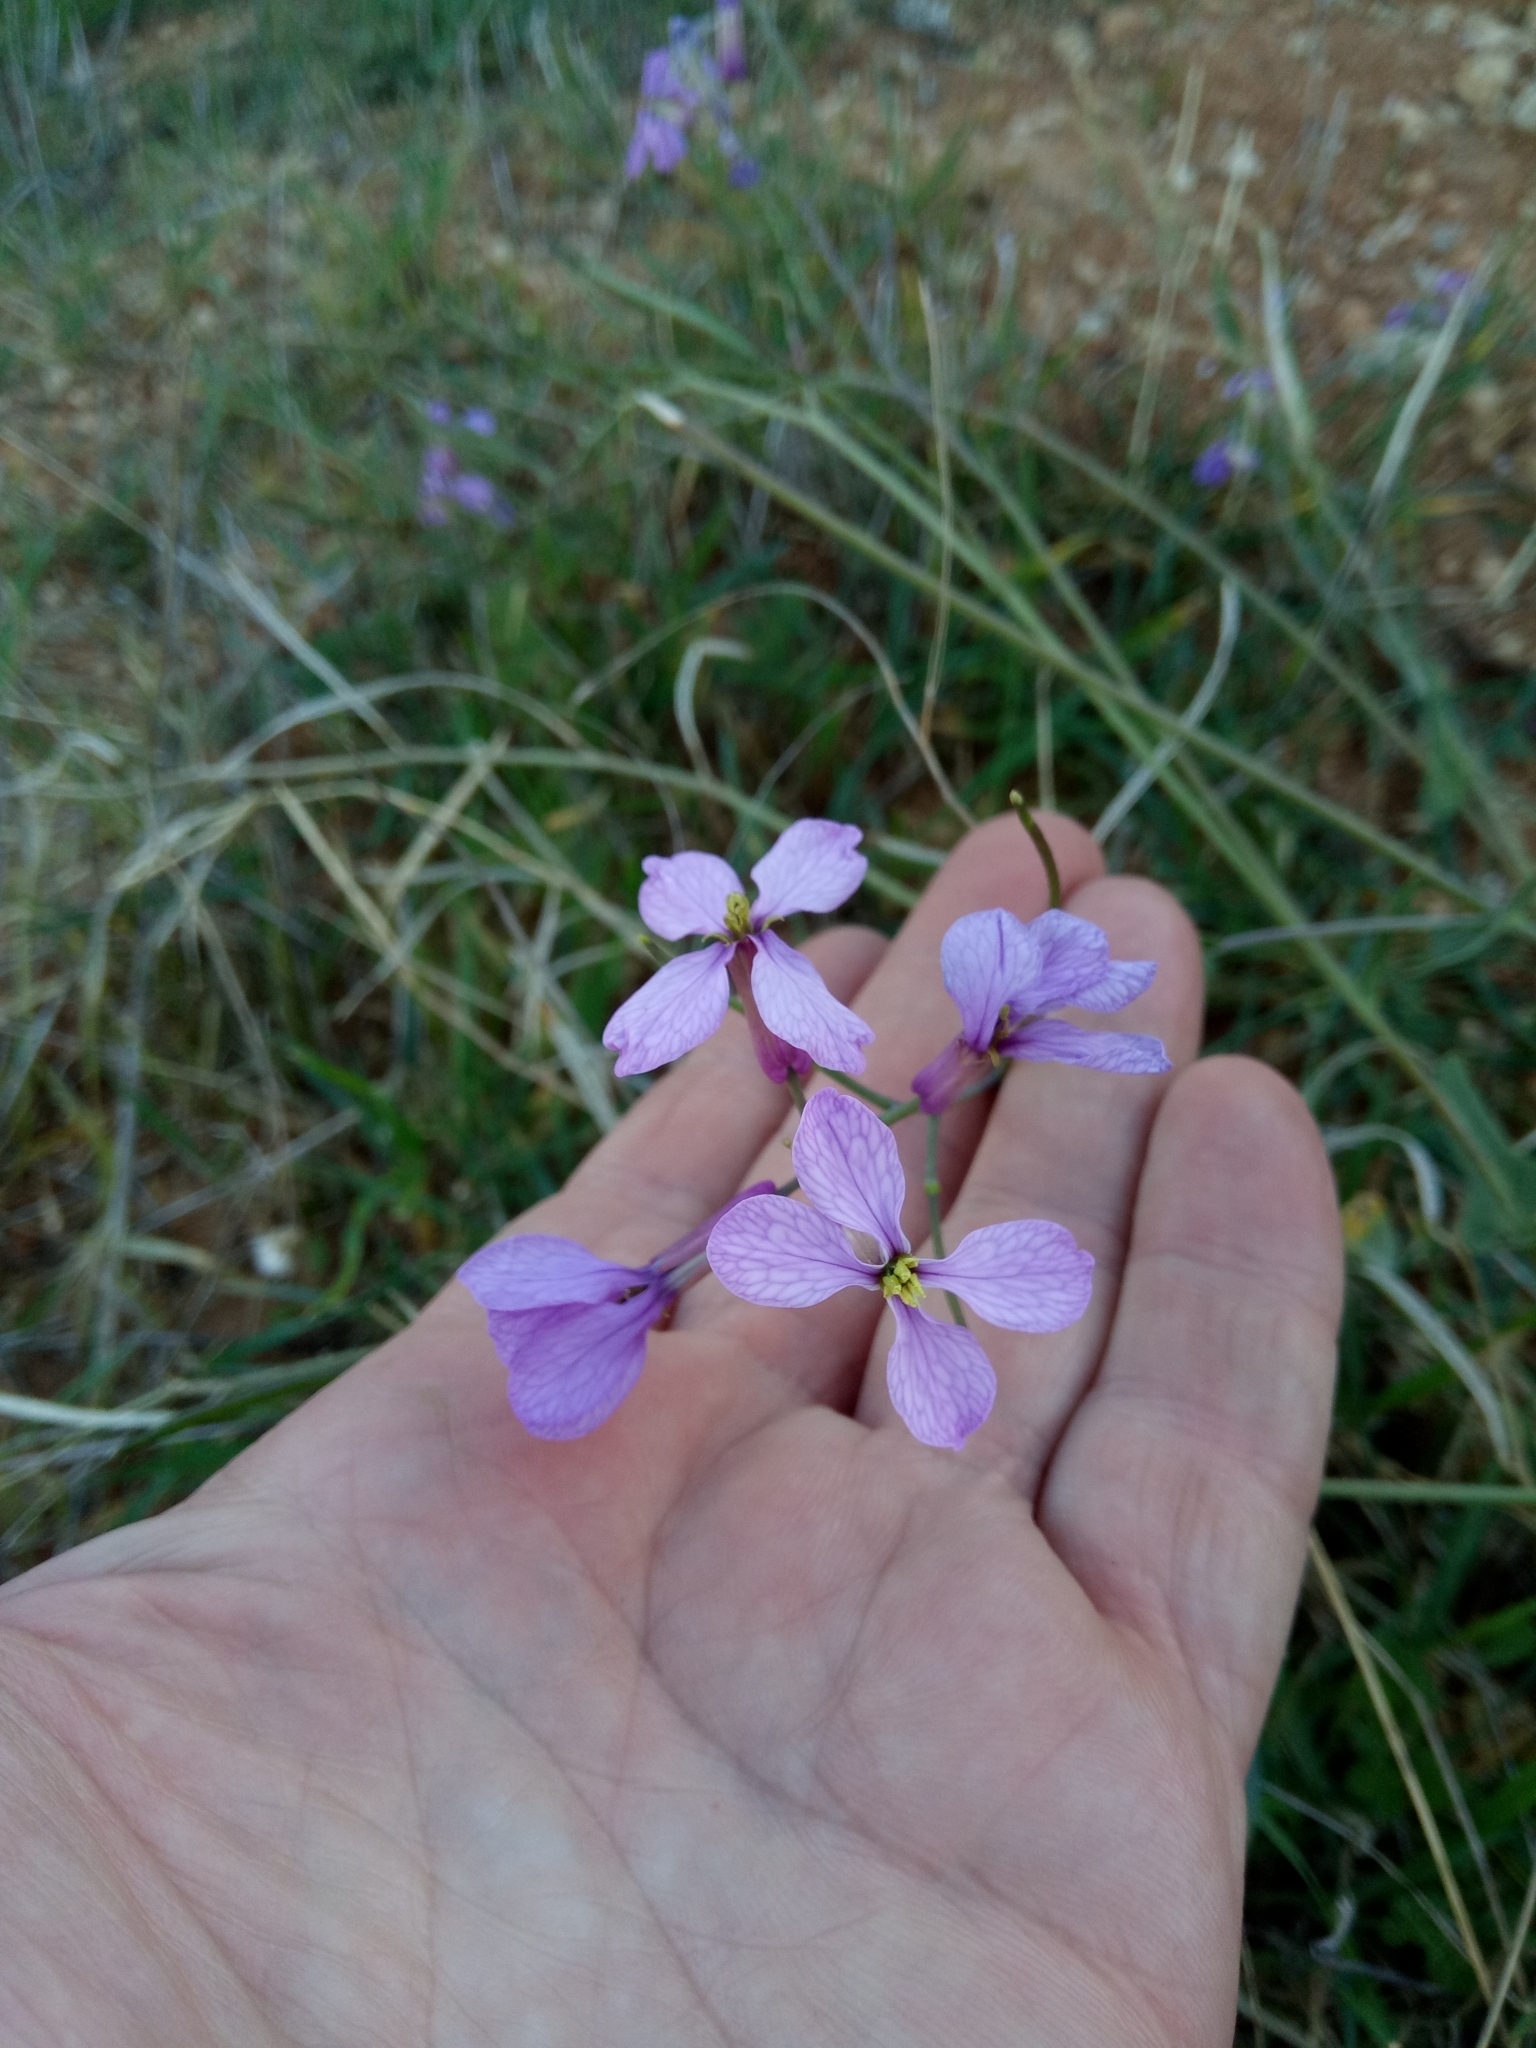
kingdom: Plantae
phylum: Tracheophyta
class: Magnoliopsida
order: Brassicales
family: Brassicaceae
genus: Moricandia
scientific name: Moricandia suffruticosa
